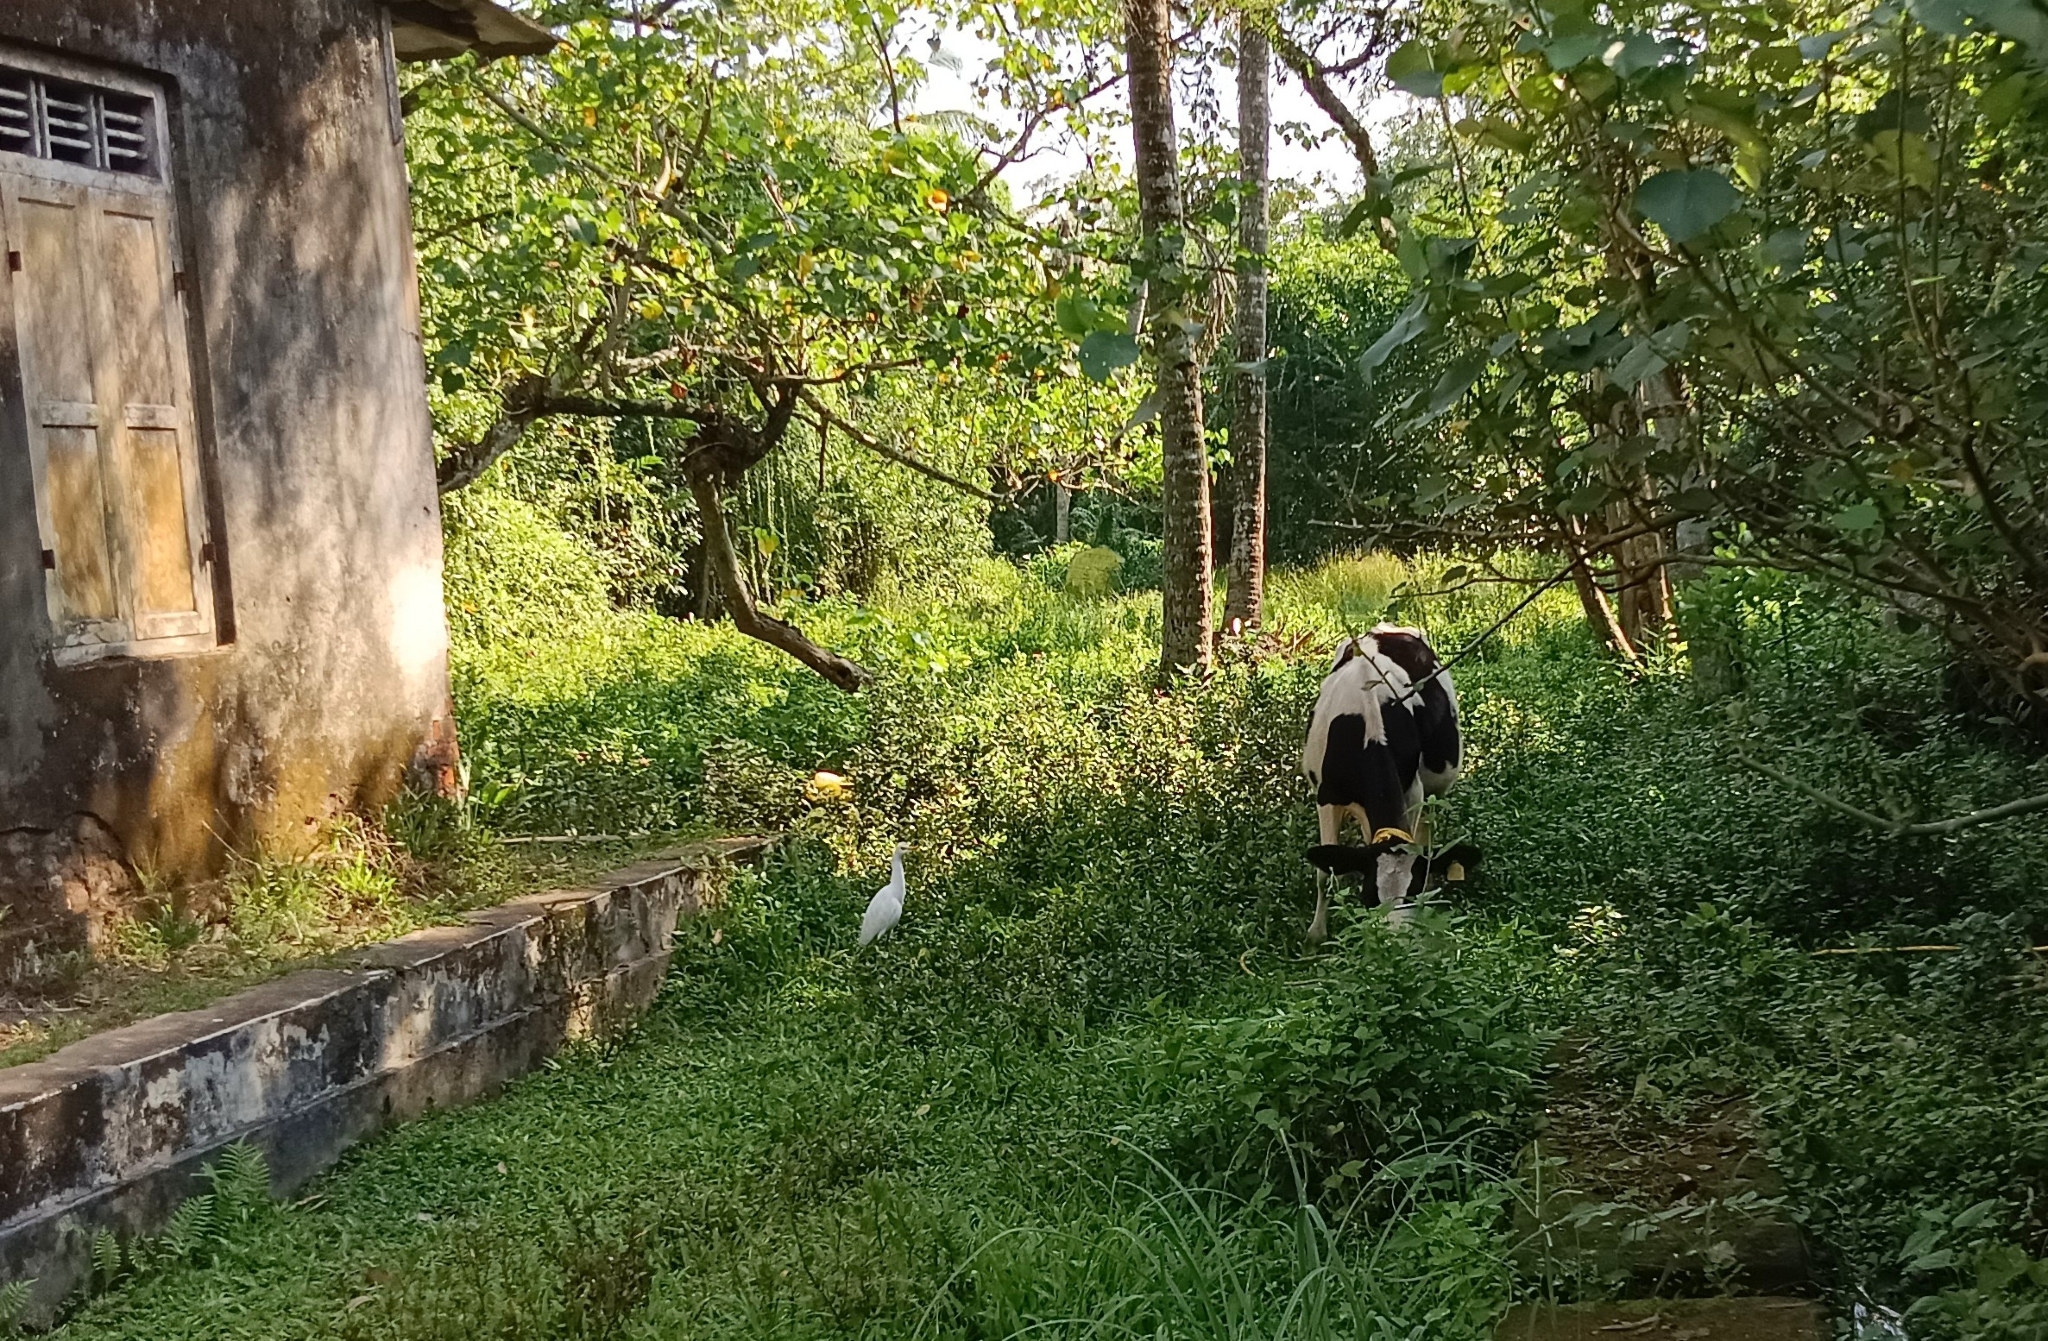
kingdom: Animalia
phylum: Chordata
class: Aves
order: Pelecaniformes
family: Ardeidae
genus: Bubulcus
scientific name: Bubulcus coromandus
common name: Eastern cattle egret
